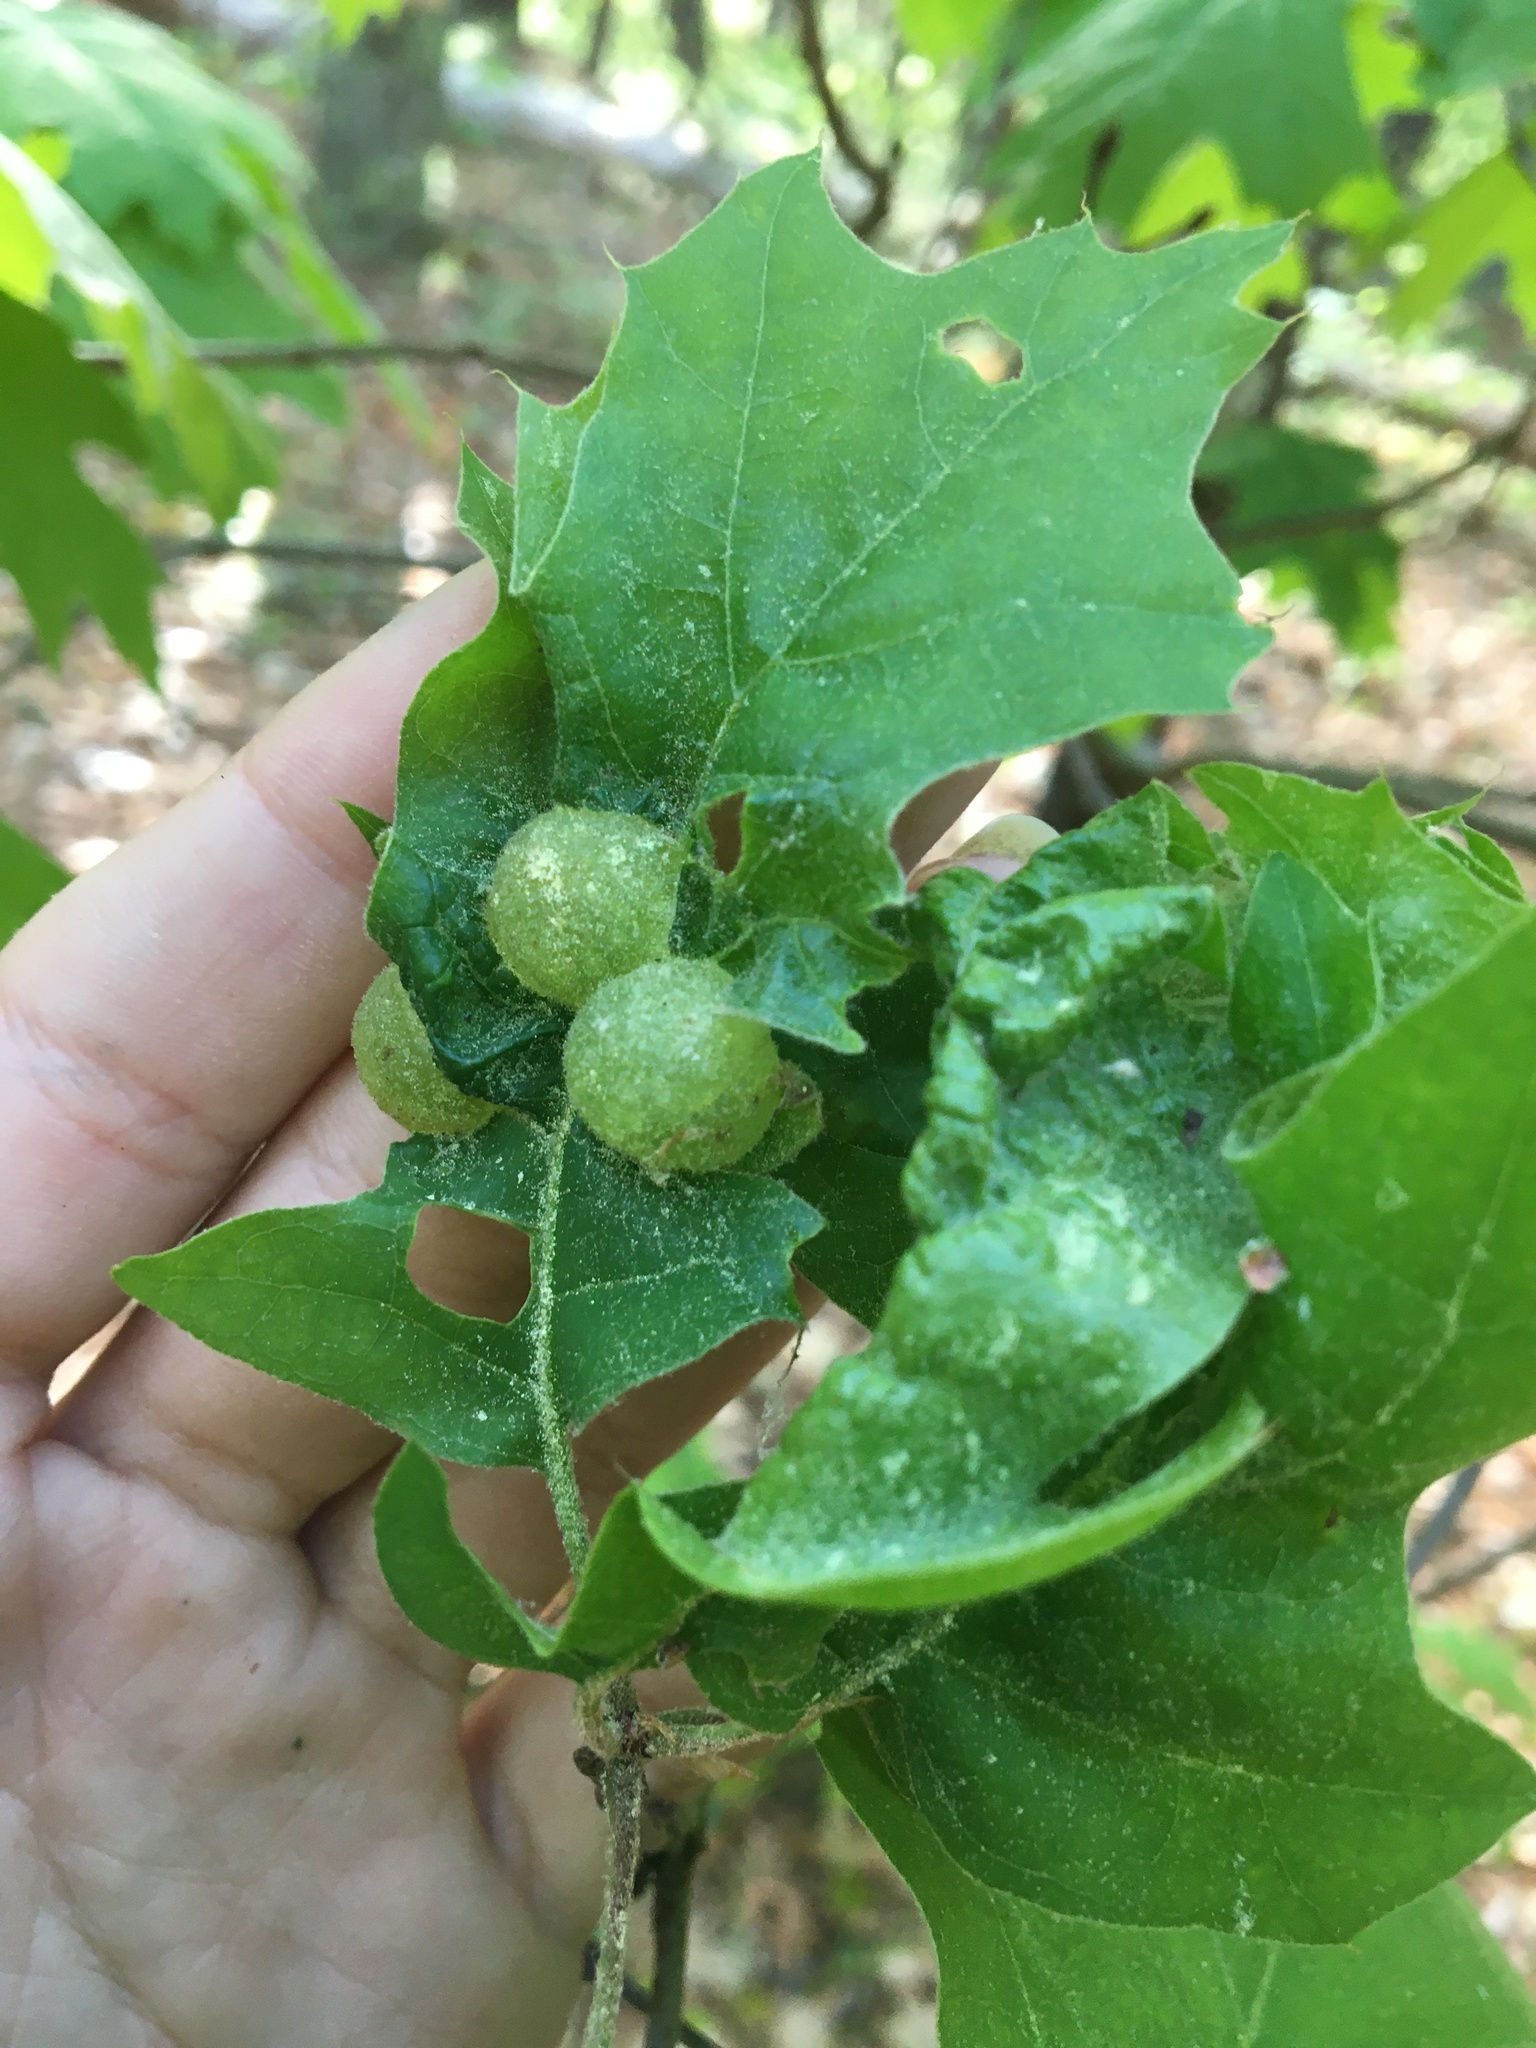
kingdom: Animalia
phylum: Arthropoda
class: Insecta
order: Hymenoptera
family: Cynipidae
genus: Dryocosmus
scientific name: Dryocosmus quercuspalustris
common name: Succulent oak gall wasp
